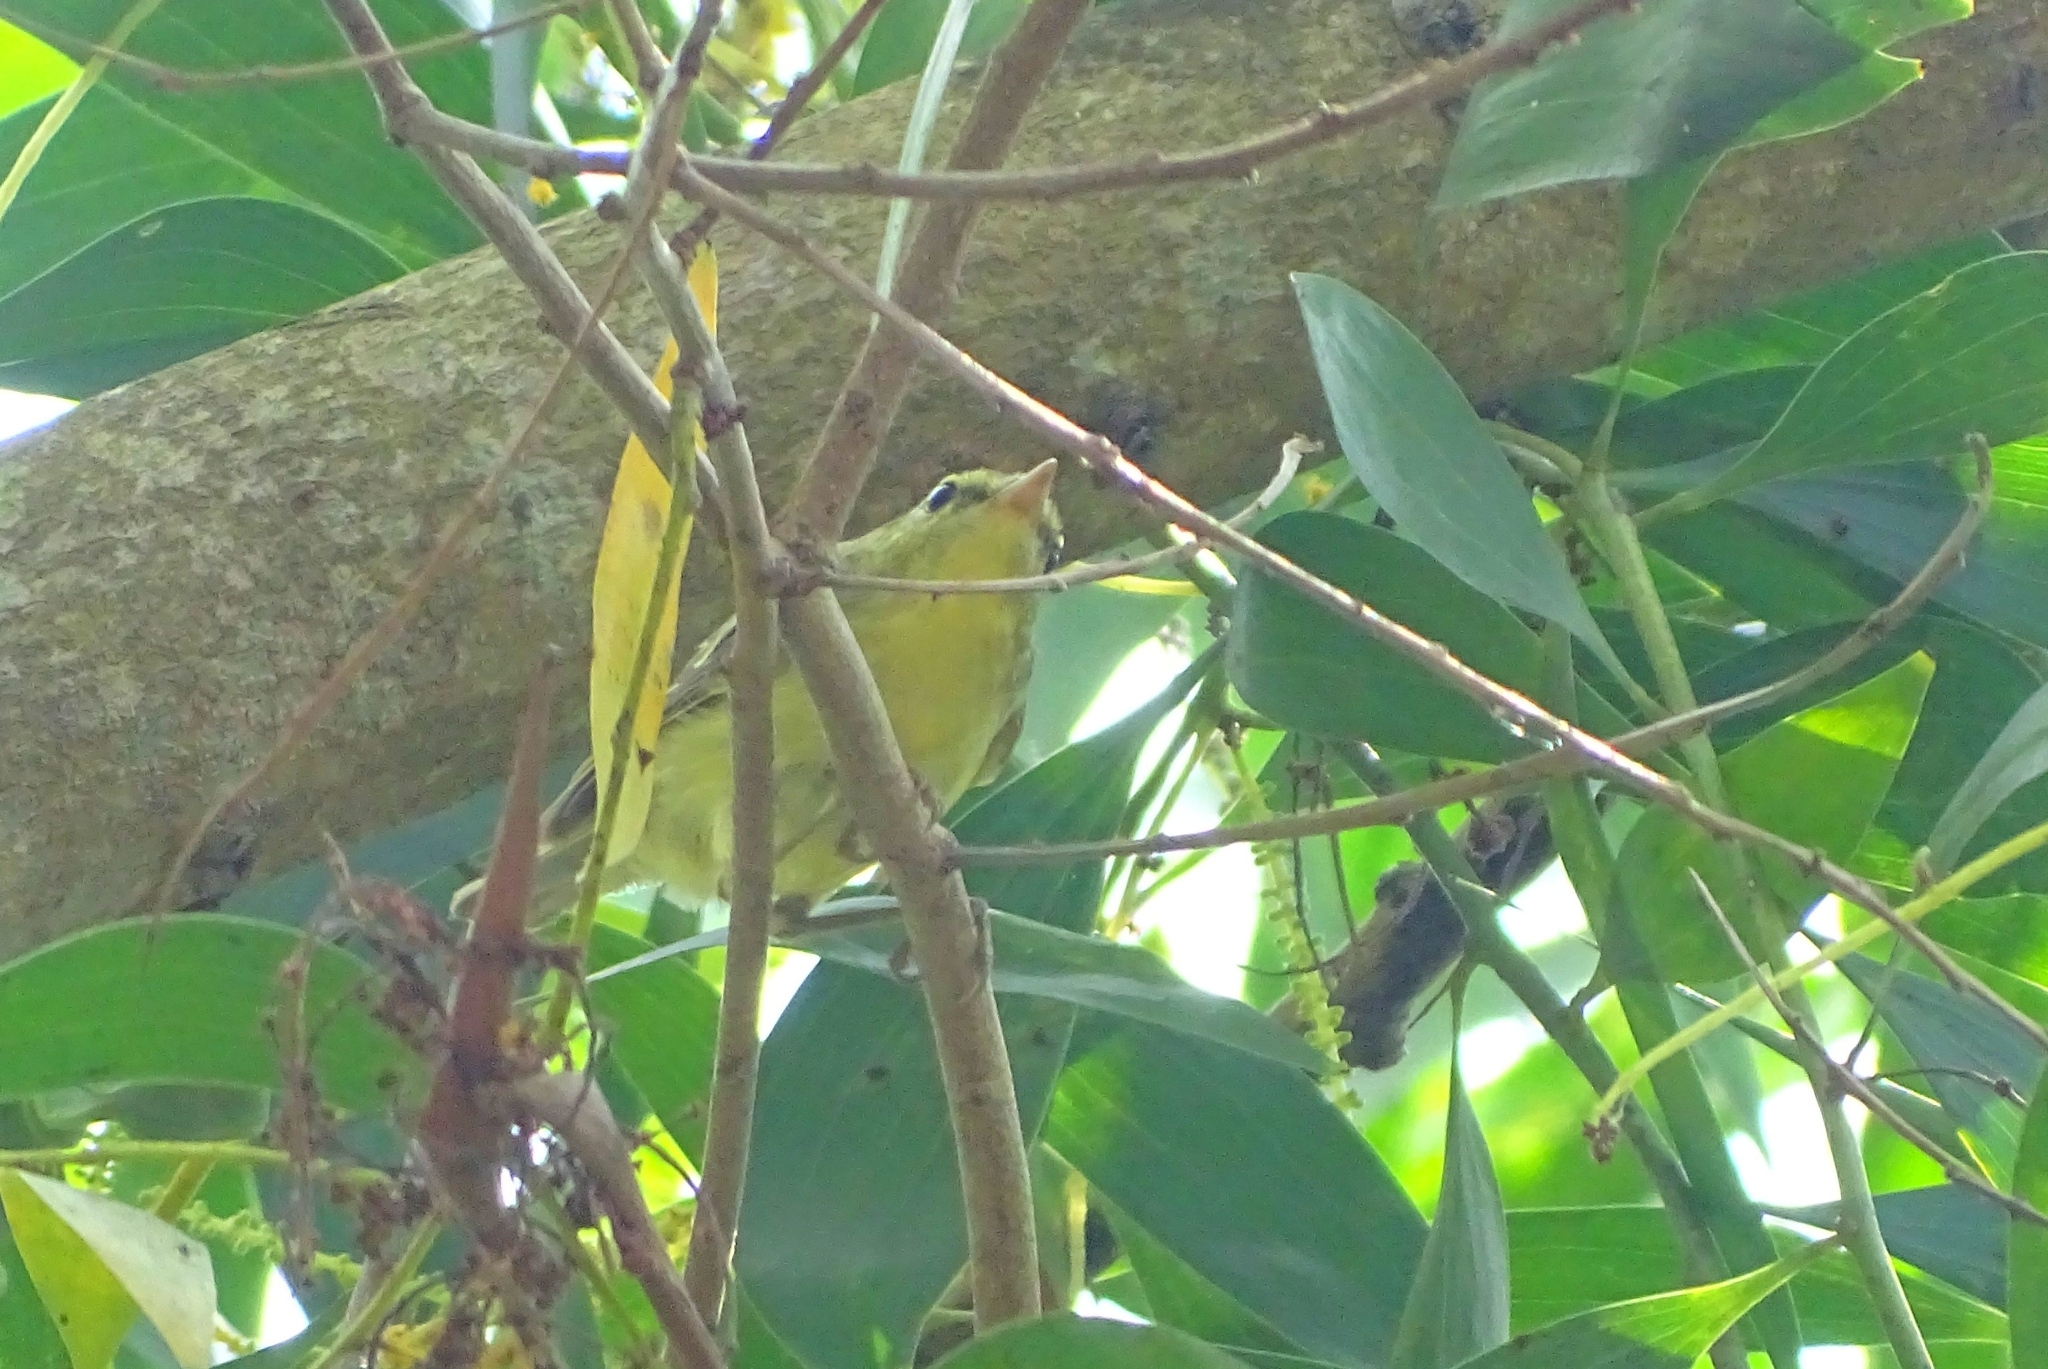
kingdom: Animalia
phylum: Chordata
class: Aves
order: Passeriformes
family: Phylloscopidae
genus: Phylloscopus
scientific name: Phylloscopus nitidus
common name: Green warbler
